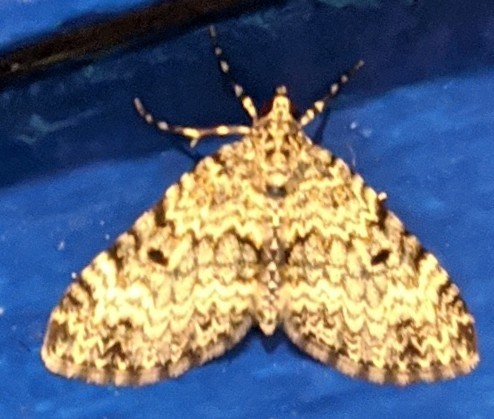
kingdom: Animalia
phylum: Arthropoda
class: Insecta
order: Lepidoptera
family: Geometridae
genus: Spargania
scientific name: Spargania magnoliata
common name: Double-banded carpet
